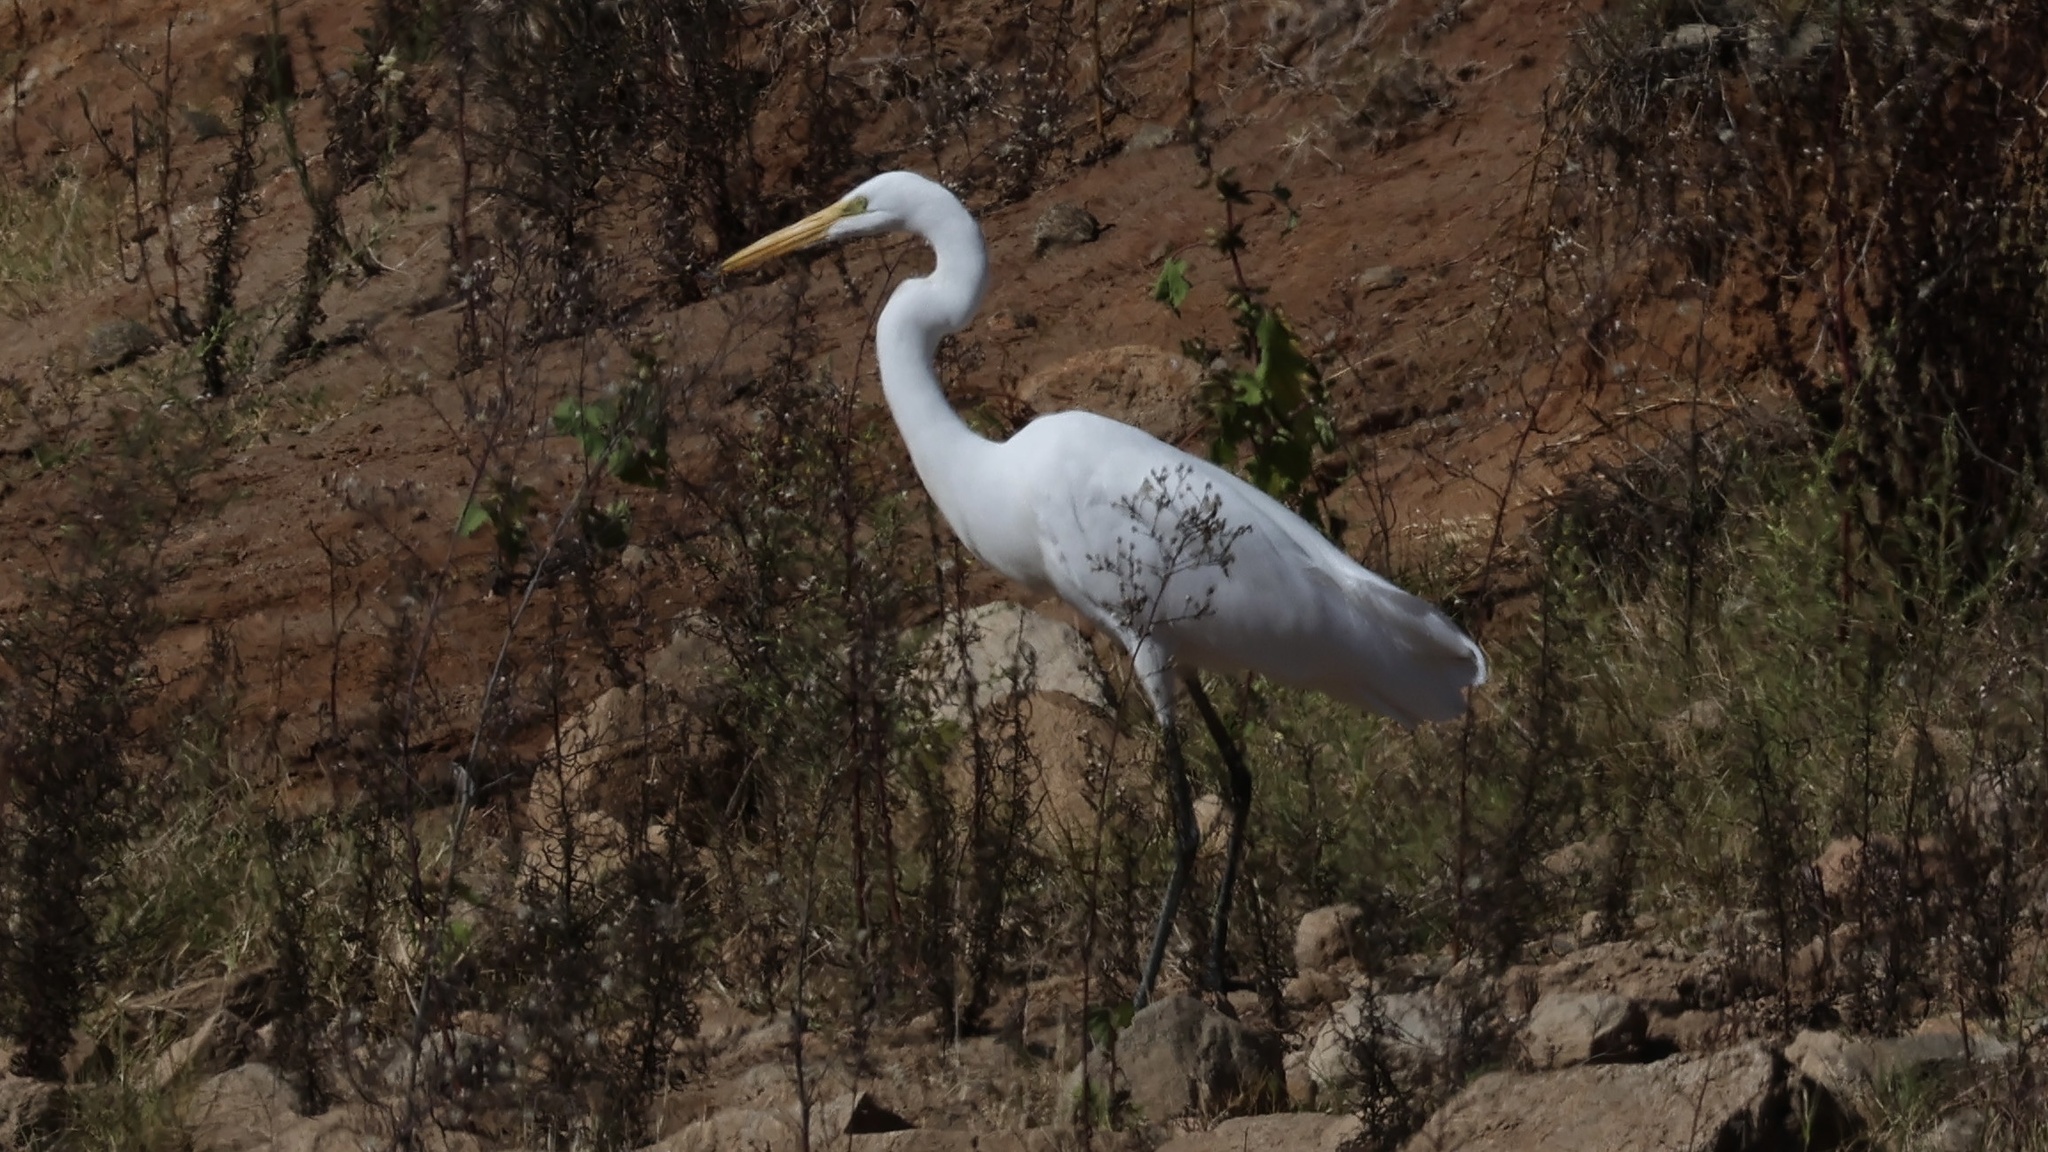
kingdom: Animalia
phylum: Chordata
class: Aves
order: Pelecaniformes
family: Ardeidae
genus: Ardea
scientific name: Ardea alba
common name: Great egret
